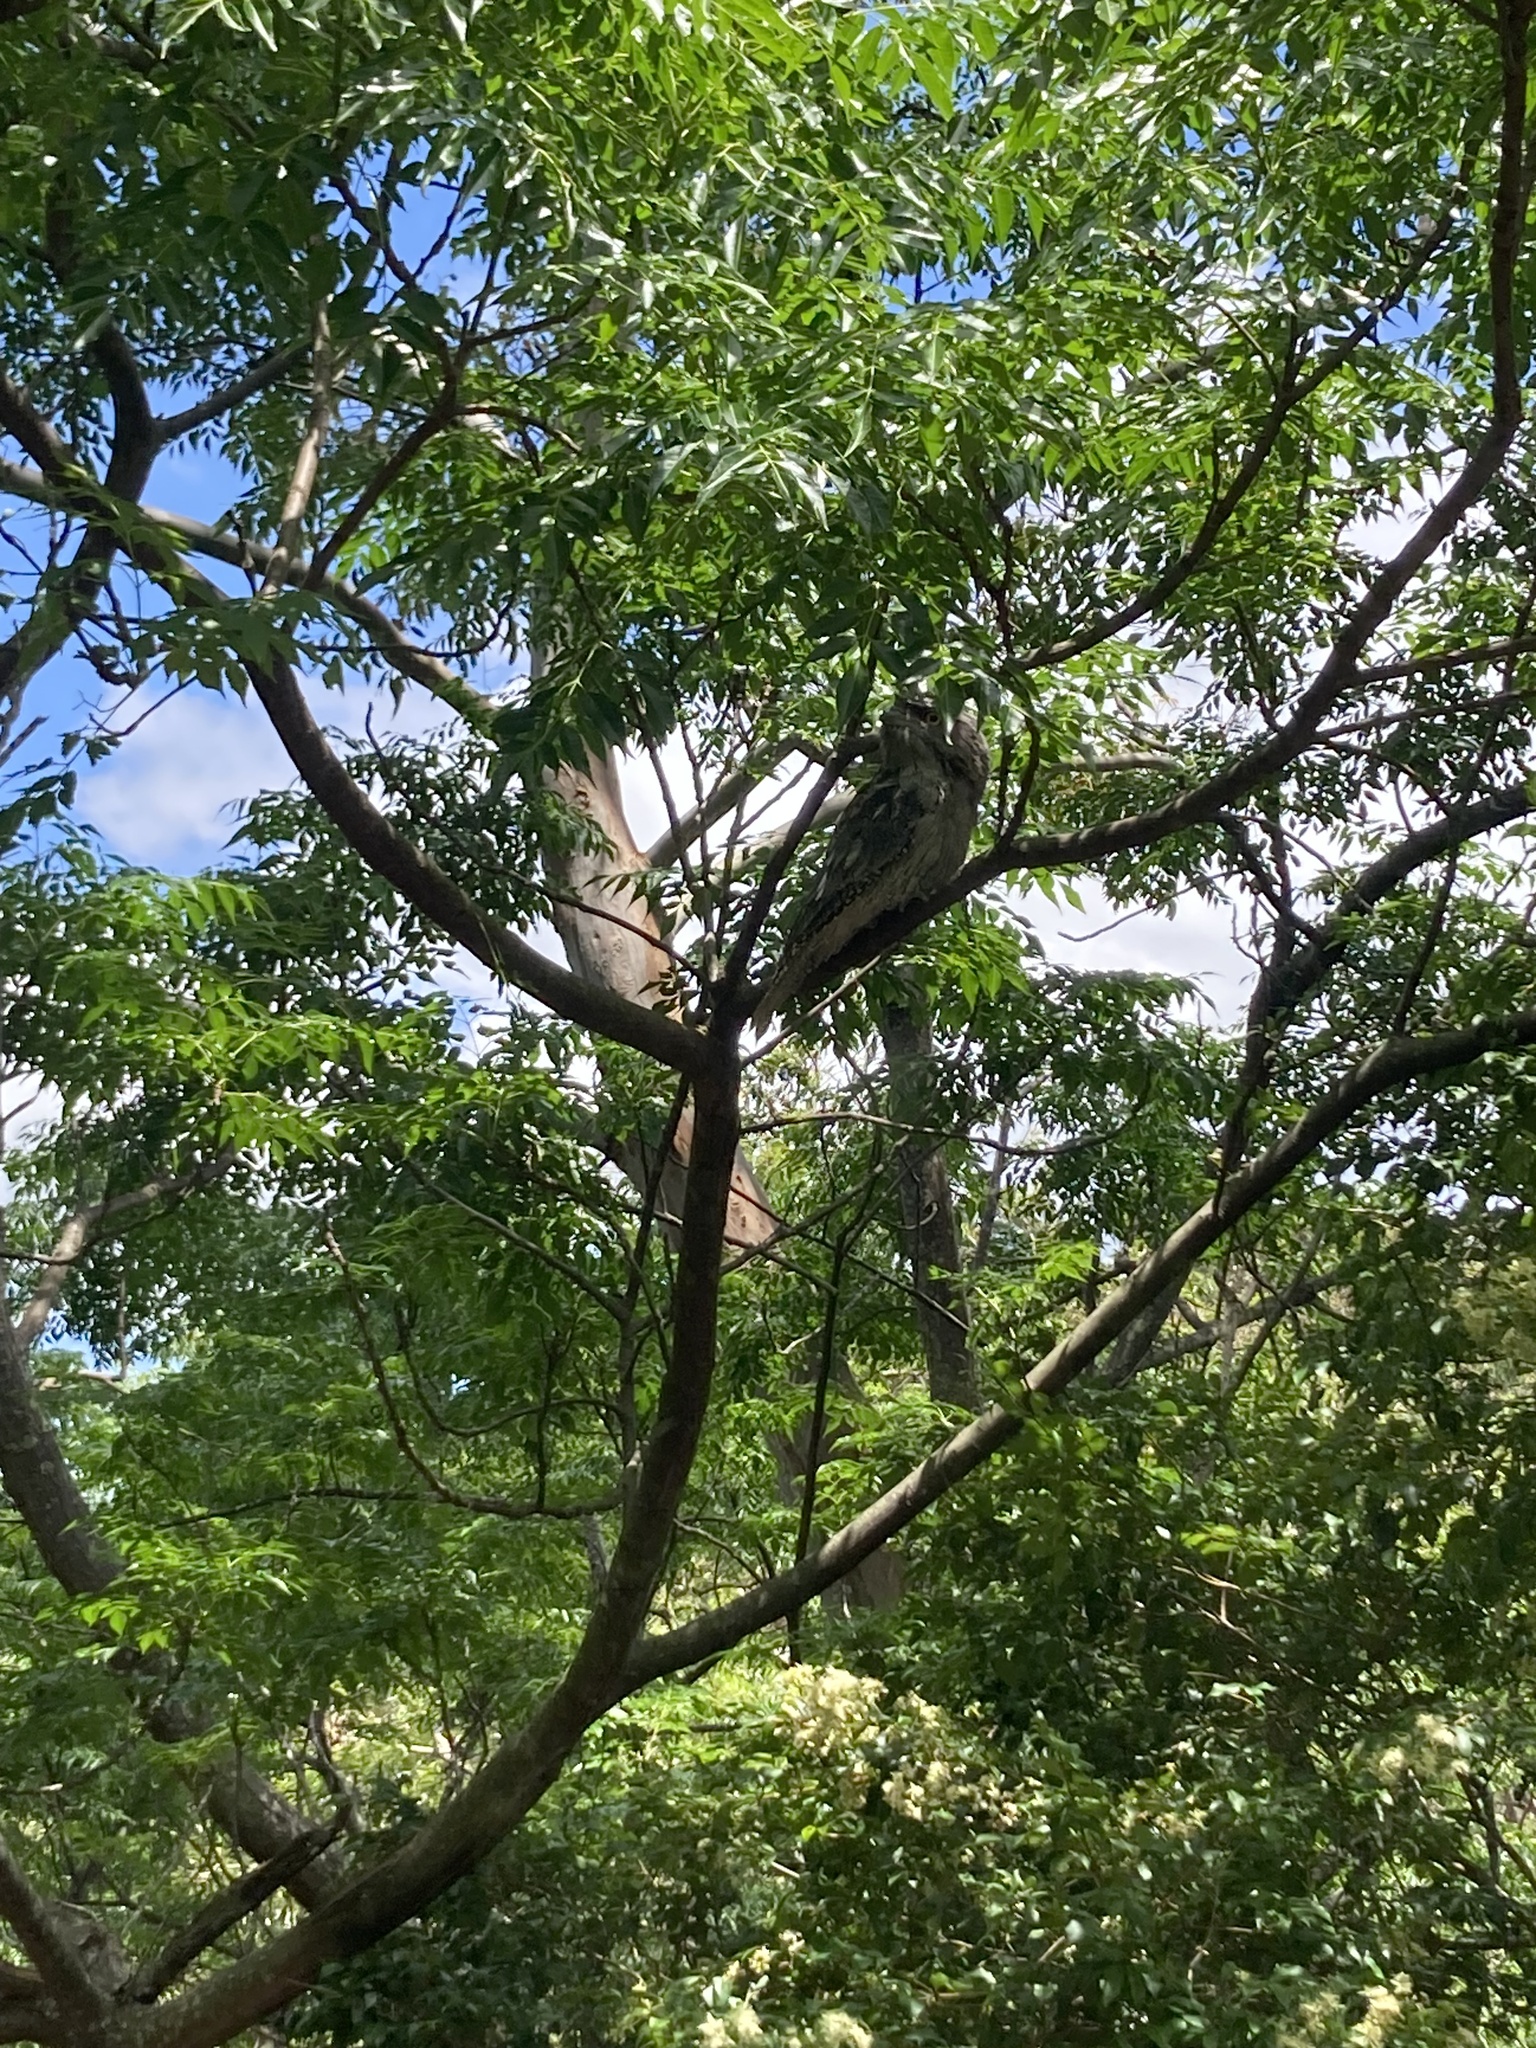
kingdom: Animalia
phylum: Chordata
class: Aves
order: Caprimulgiformes
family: Podargidae
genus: Podargus
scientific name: Podargus strigoides
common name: Tawny frogmouth
